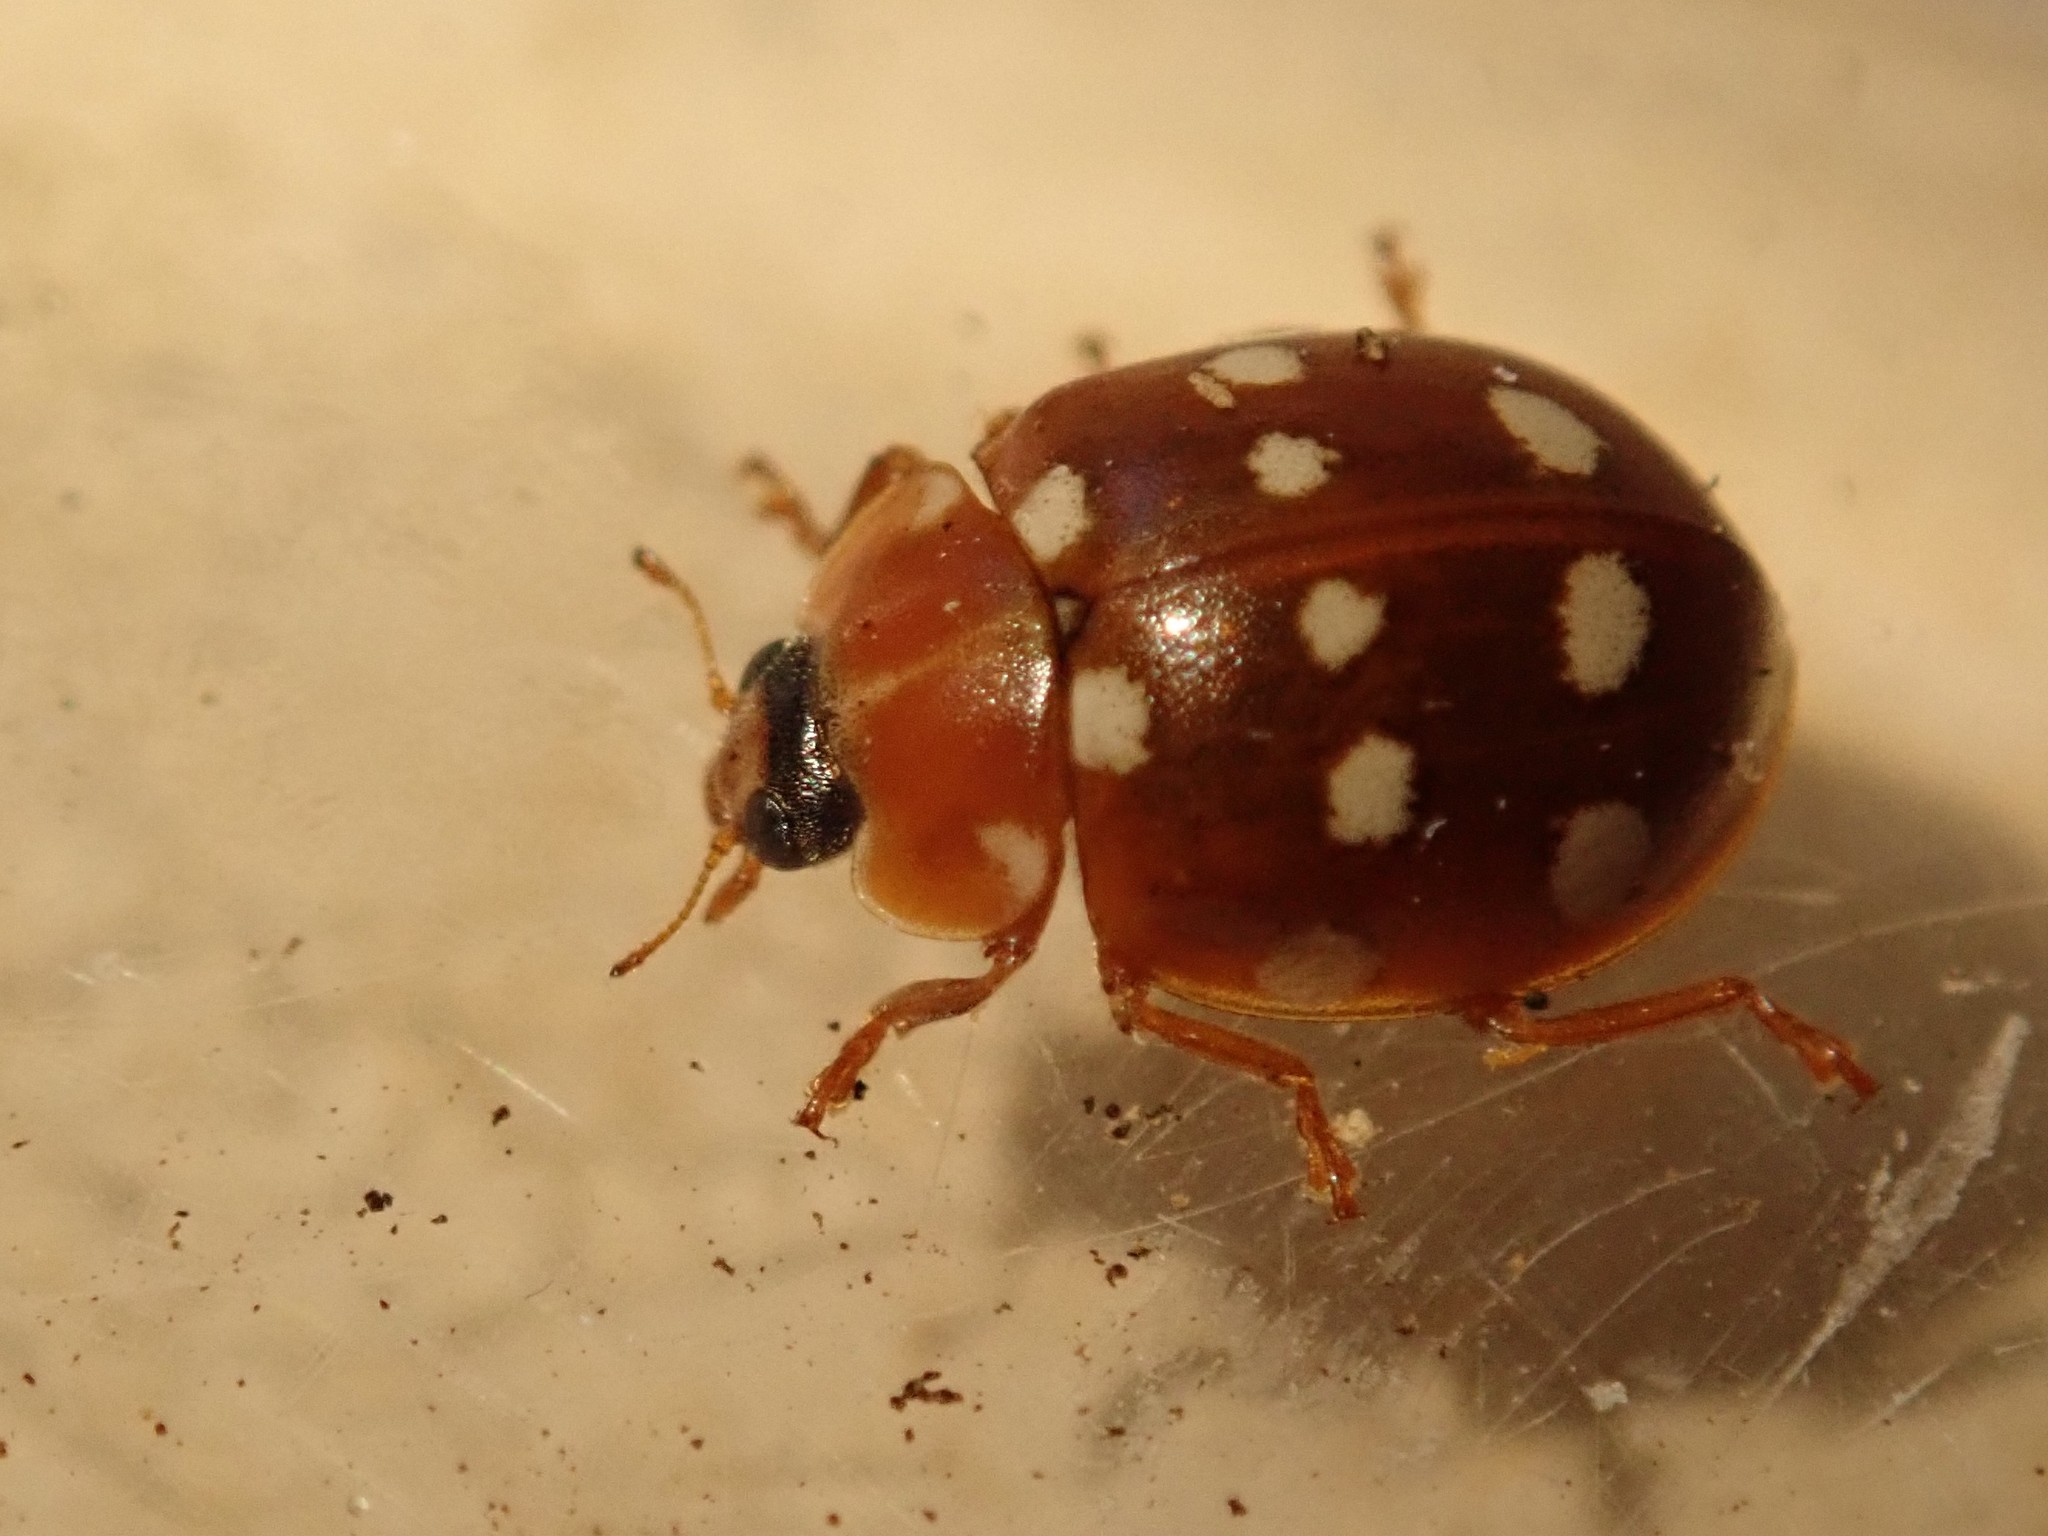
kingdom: Animalia
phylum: Arthropoda
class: Insecta
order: Coleoptera
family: Coccinellidae
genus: Calvia
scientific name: Calvia quatuordecimguttata
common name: Cream-spot ladybird
